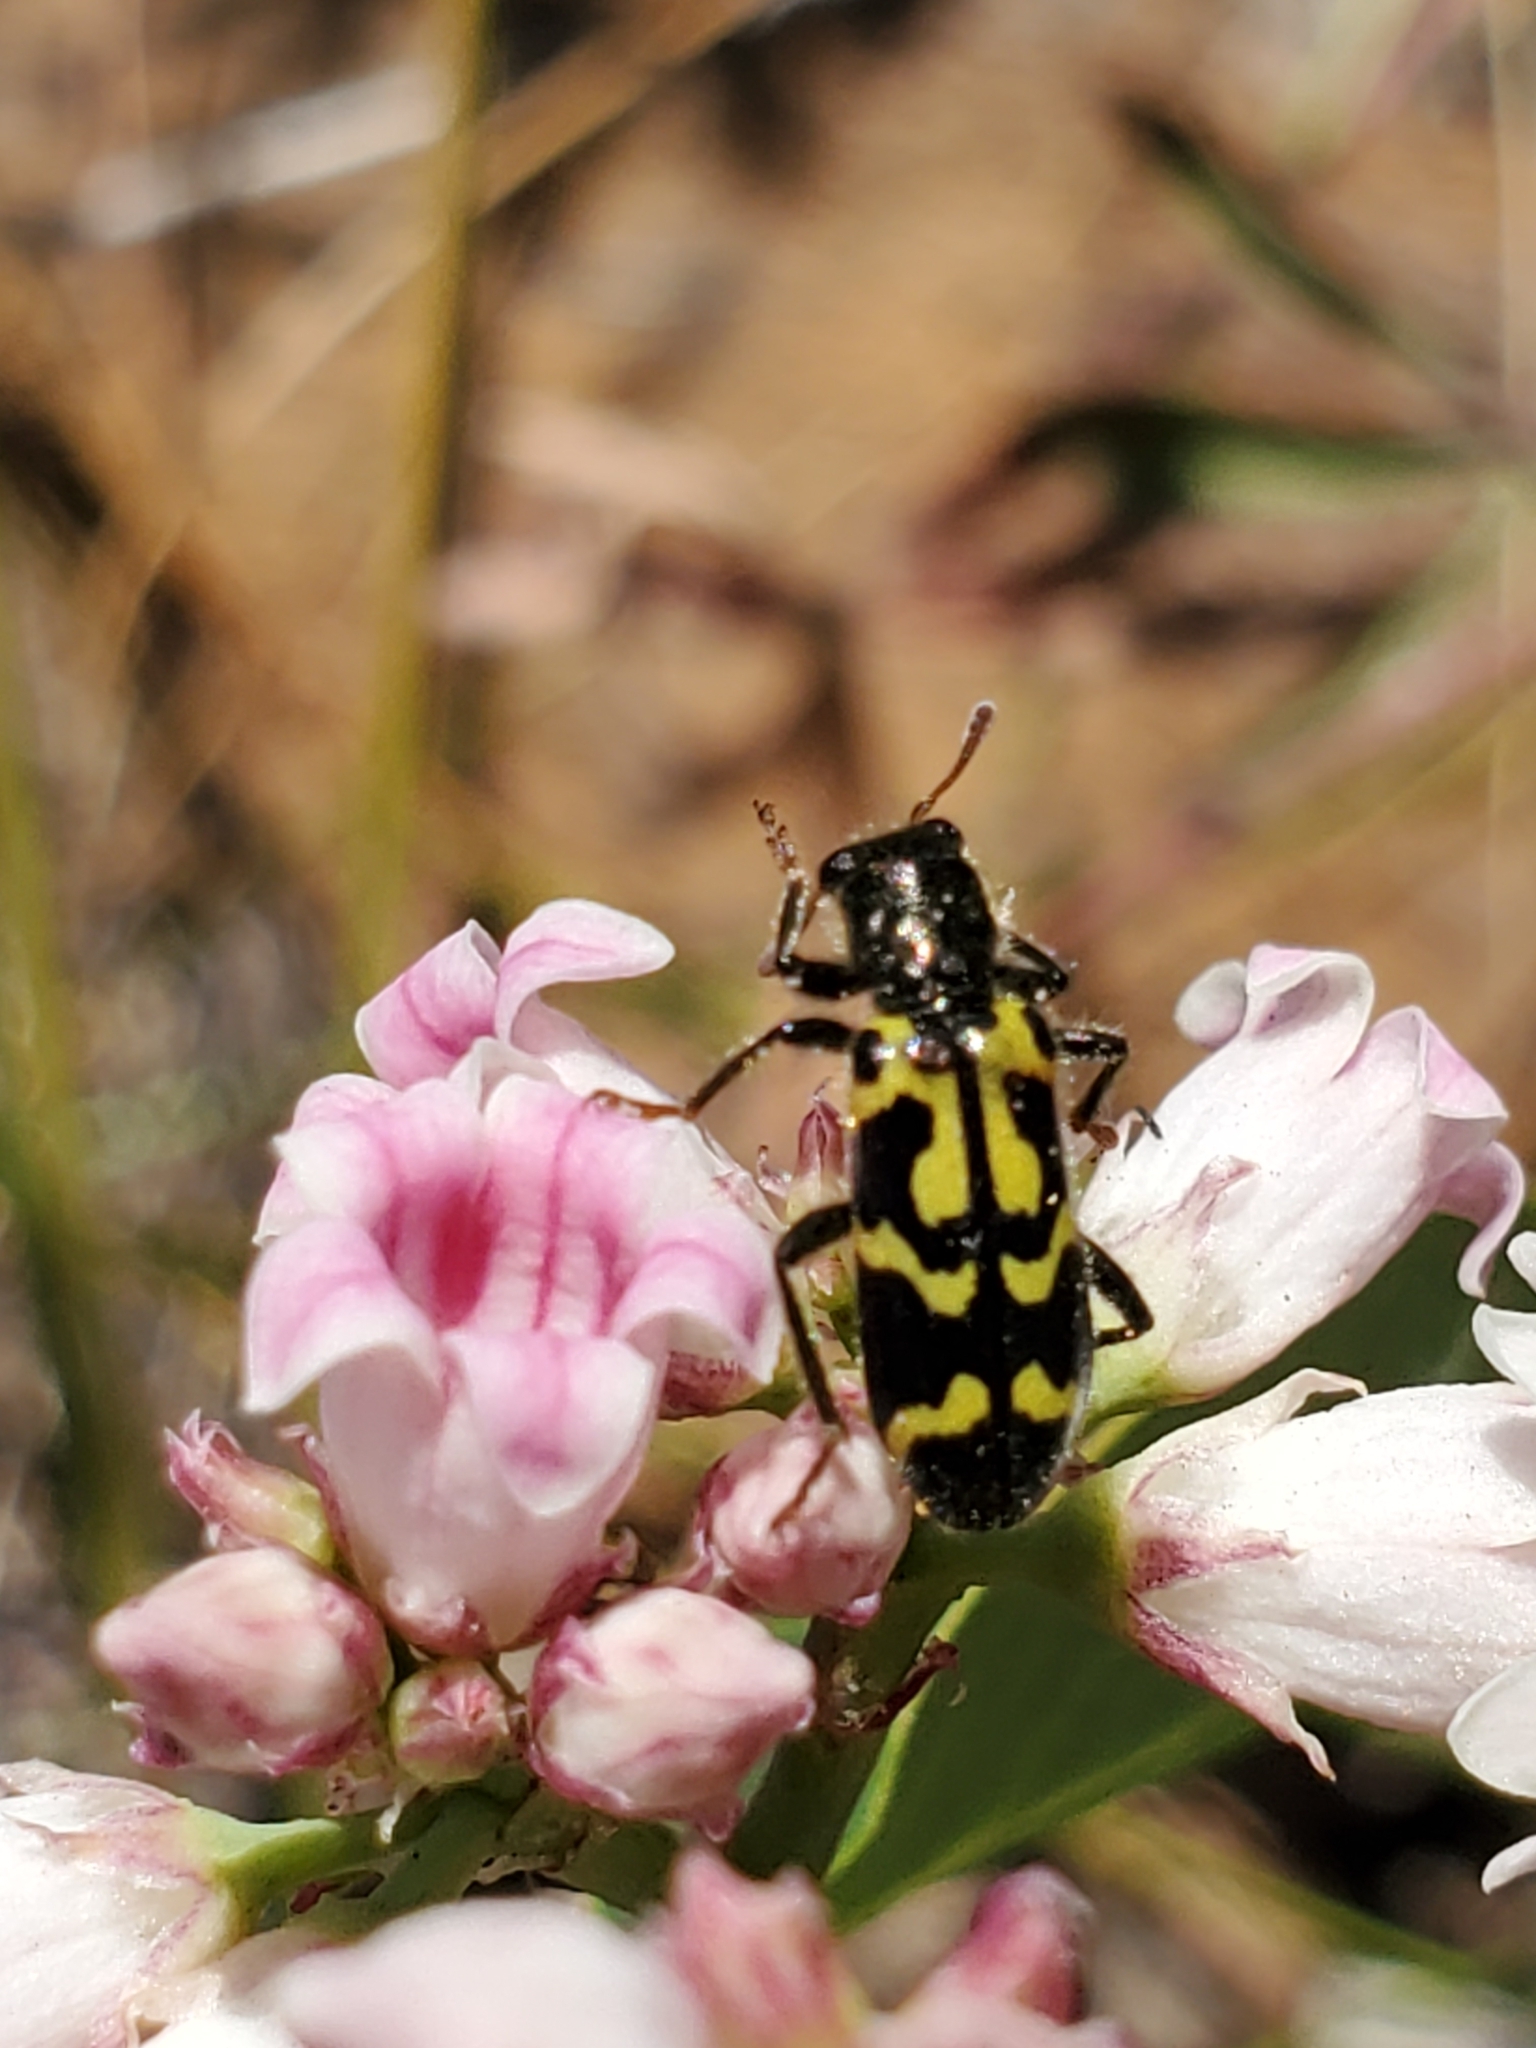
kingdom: Animalia
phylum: Arthropoda
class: Insecta
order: Coleoptera
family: Cleridae
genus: Trichodes
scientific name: Trichodes ornatus
